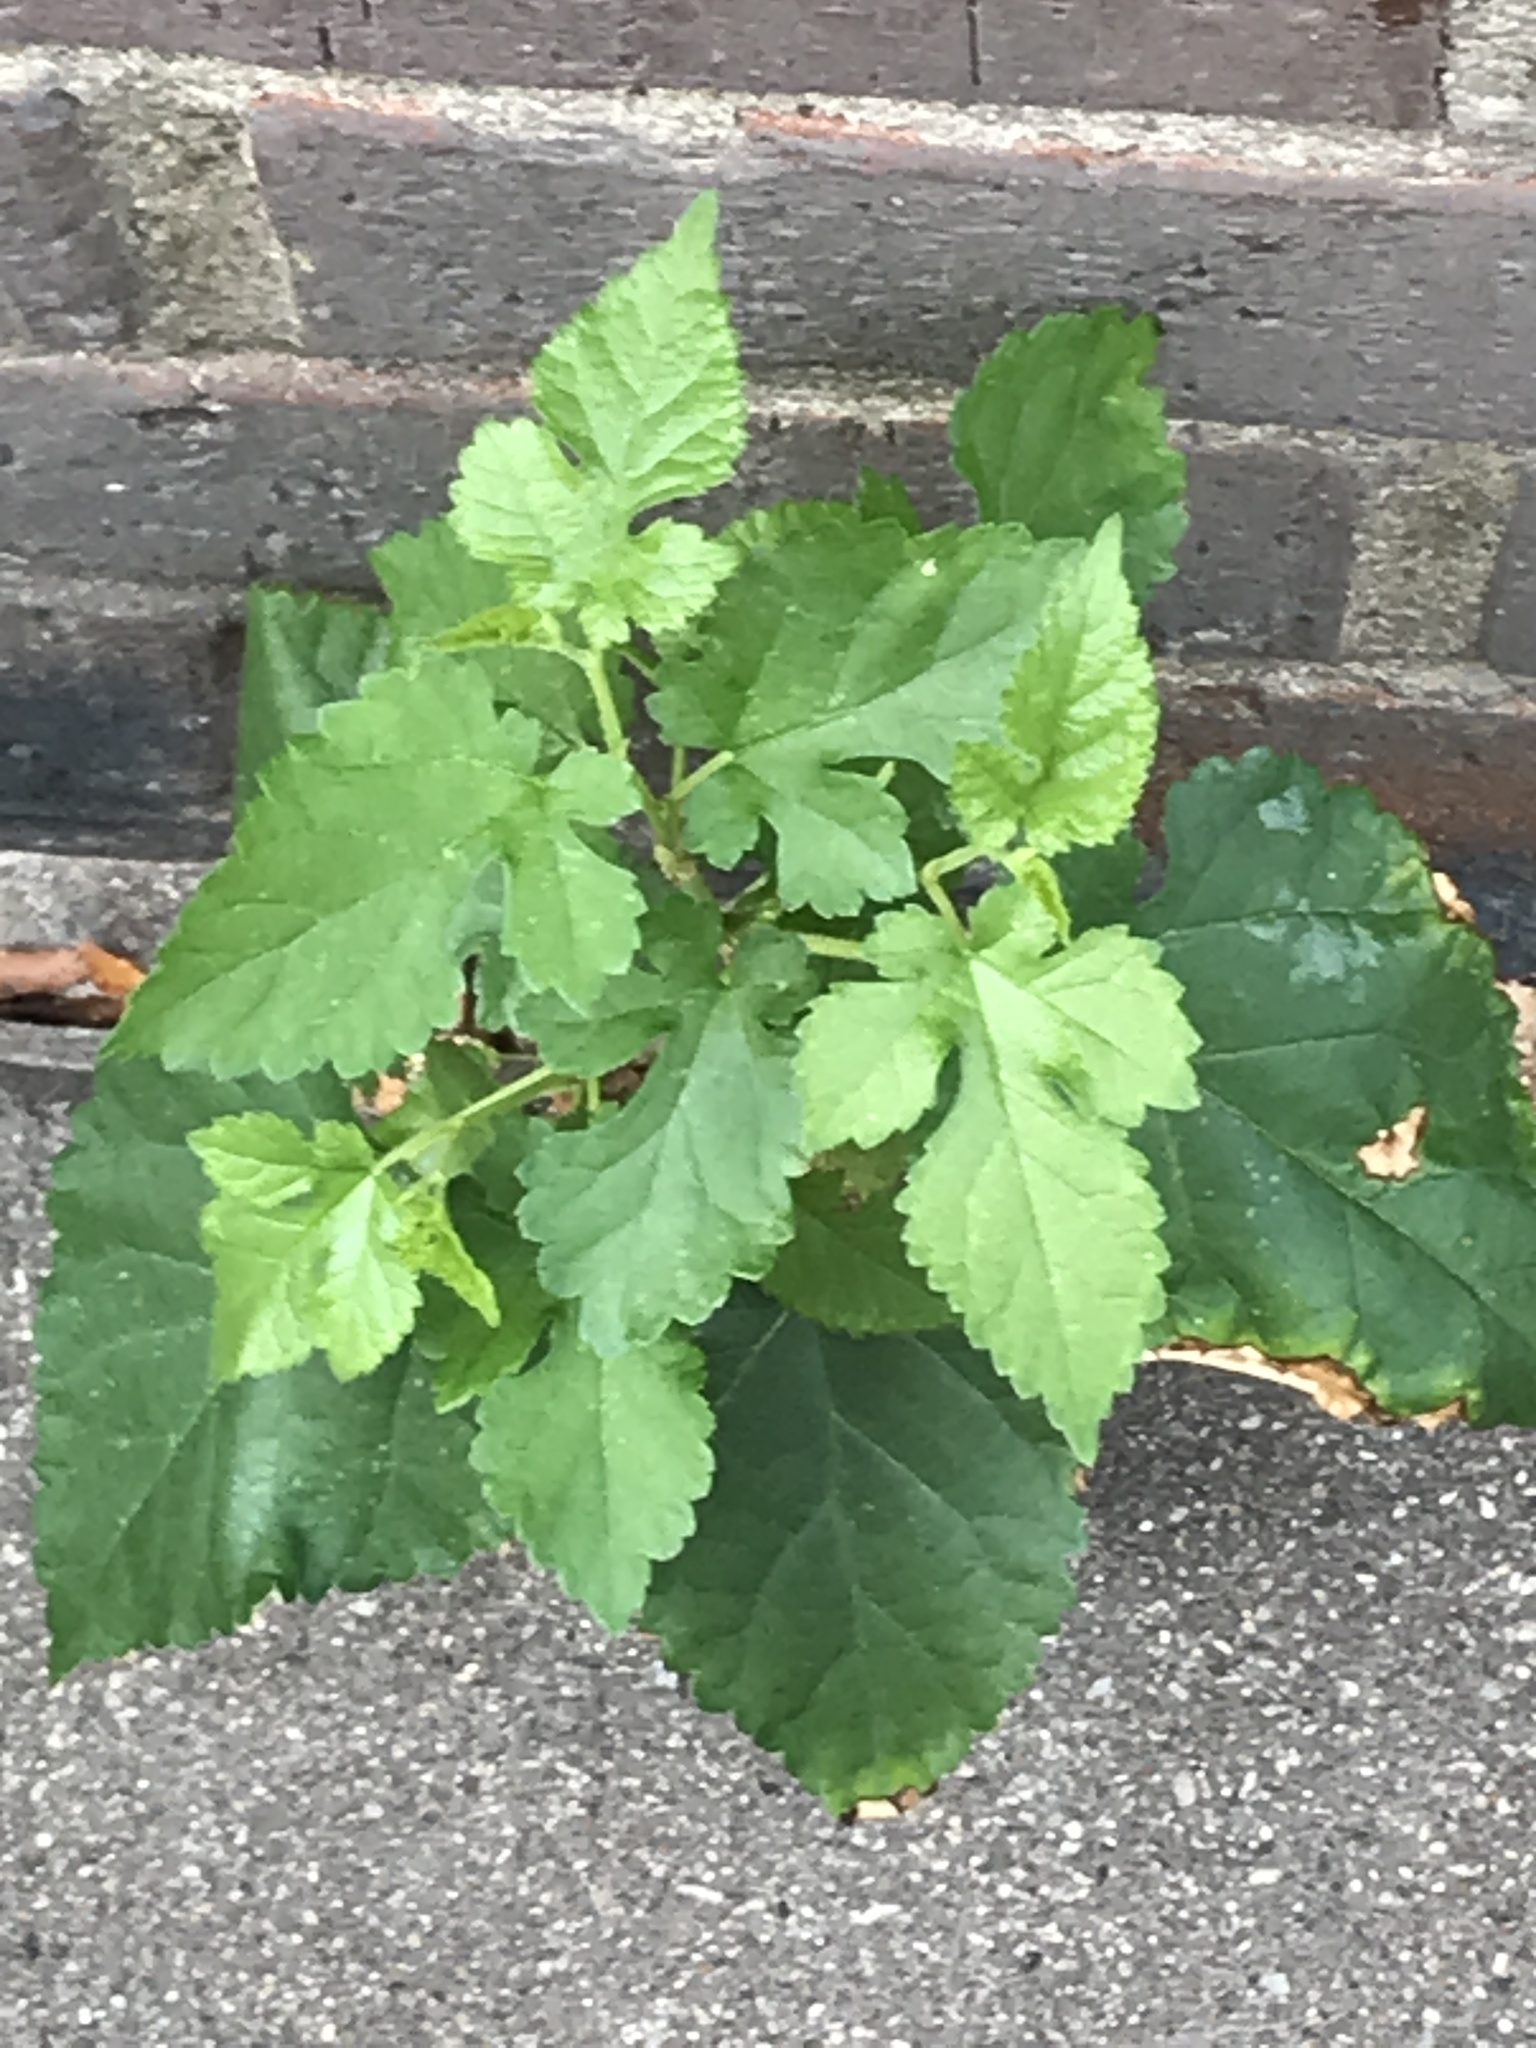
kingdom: Plantae
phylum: Tracheophyta
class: Magnoliopsida
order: Rosales
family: Moraceae
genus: Morus
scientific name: Morus alba
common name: White mulberry
